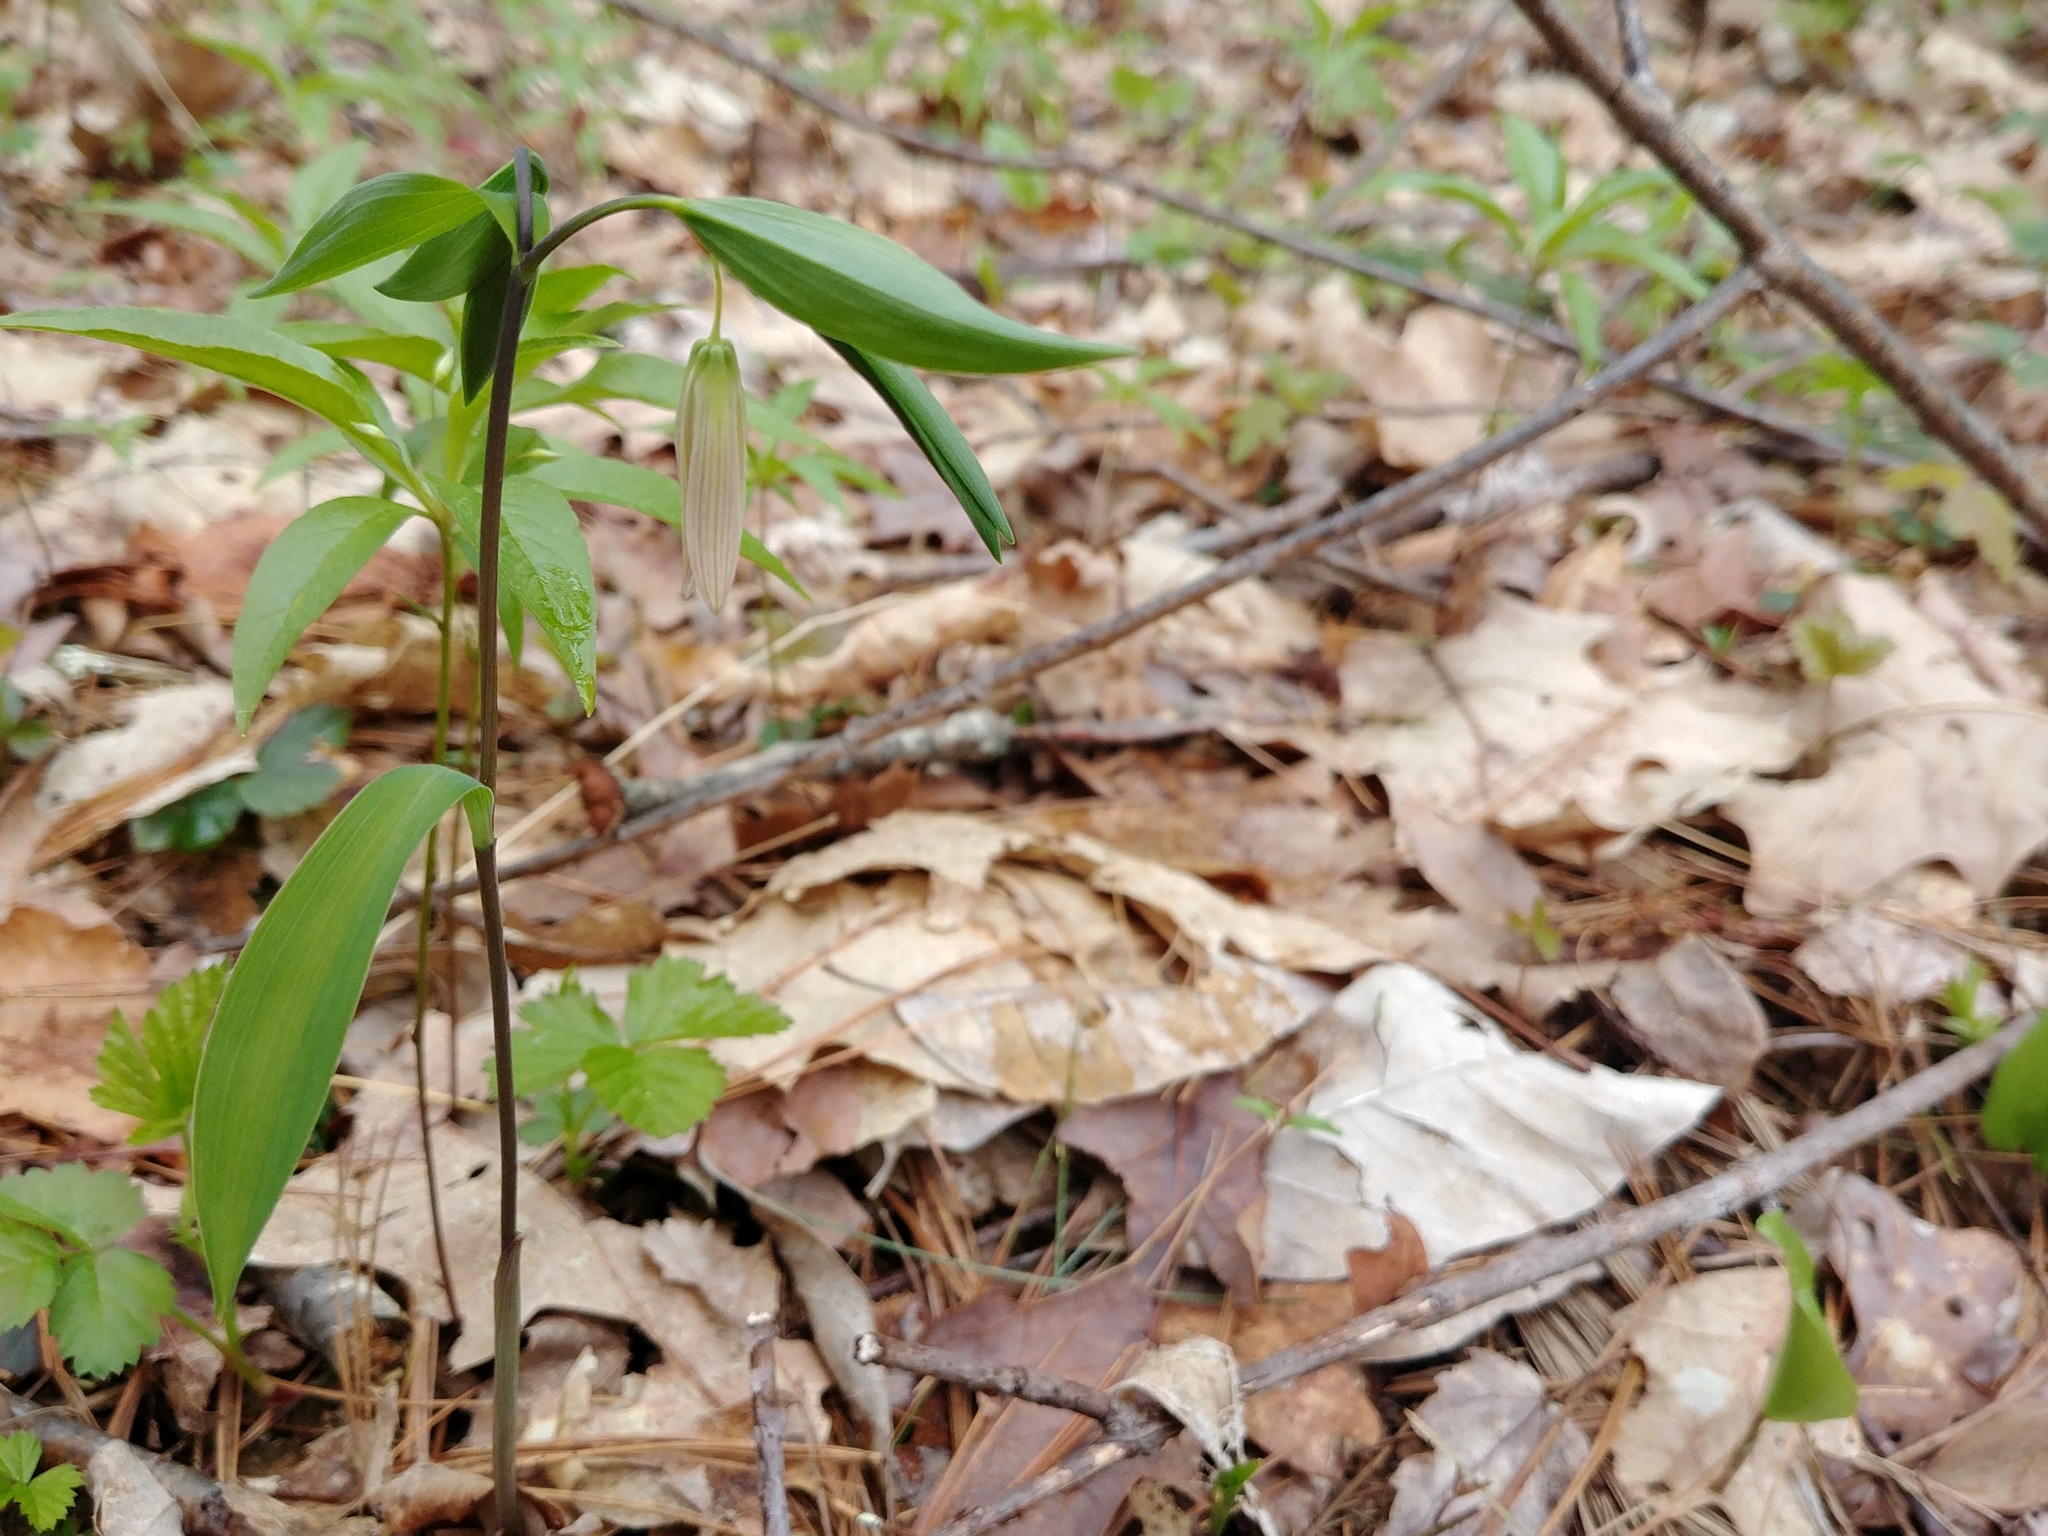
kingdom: Plantae
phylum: Tracheophyta
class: Liliopsida
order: Liliales
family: Colchicaceae
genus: Uvularia
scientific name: Uvularia sessilifolia
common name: Straw-lily
